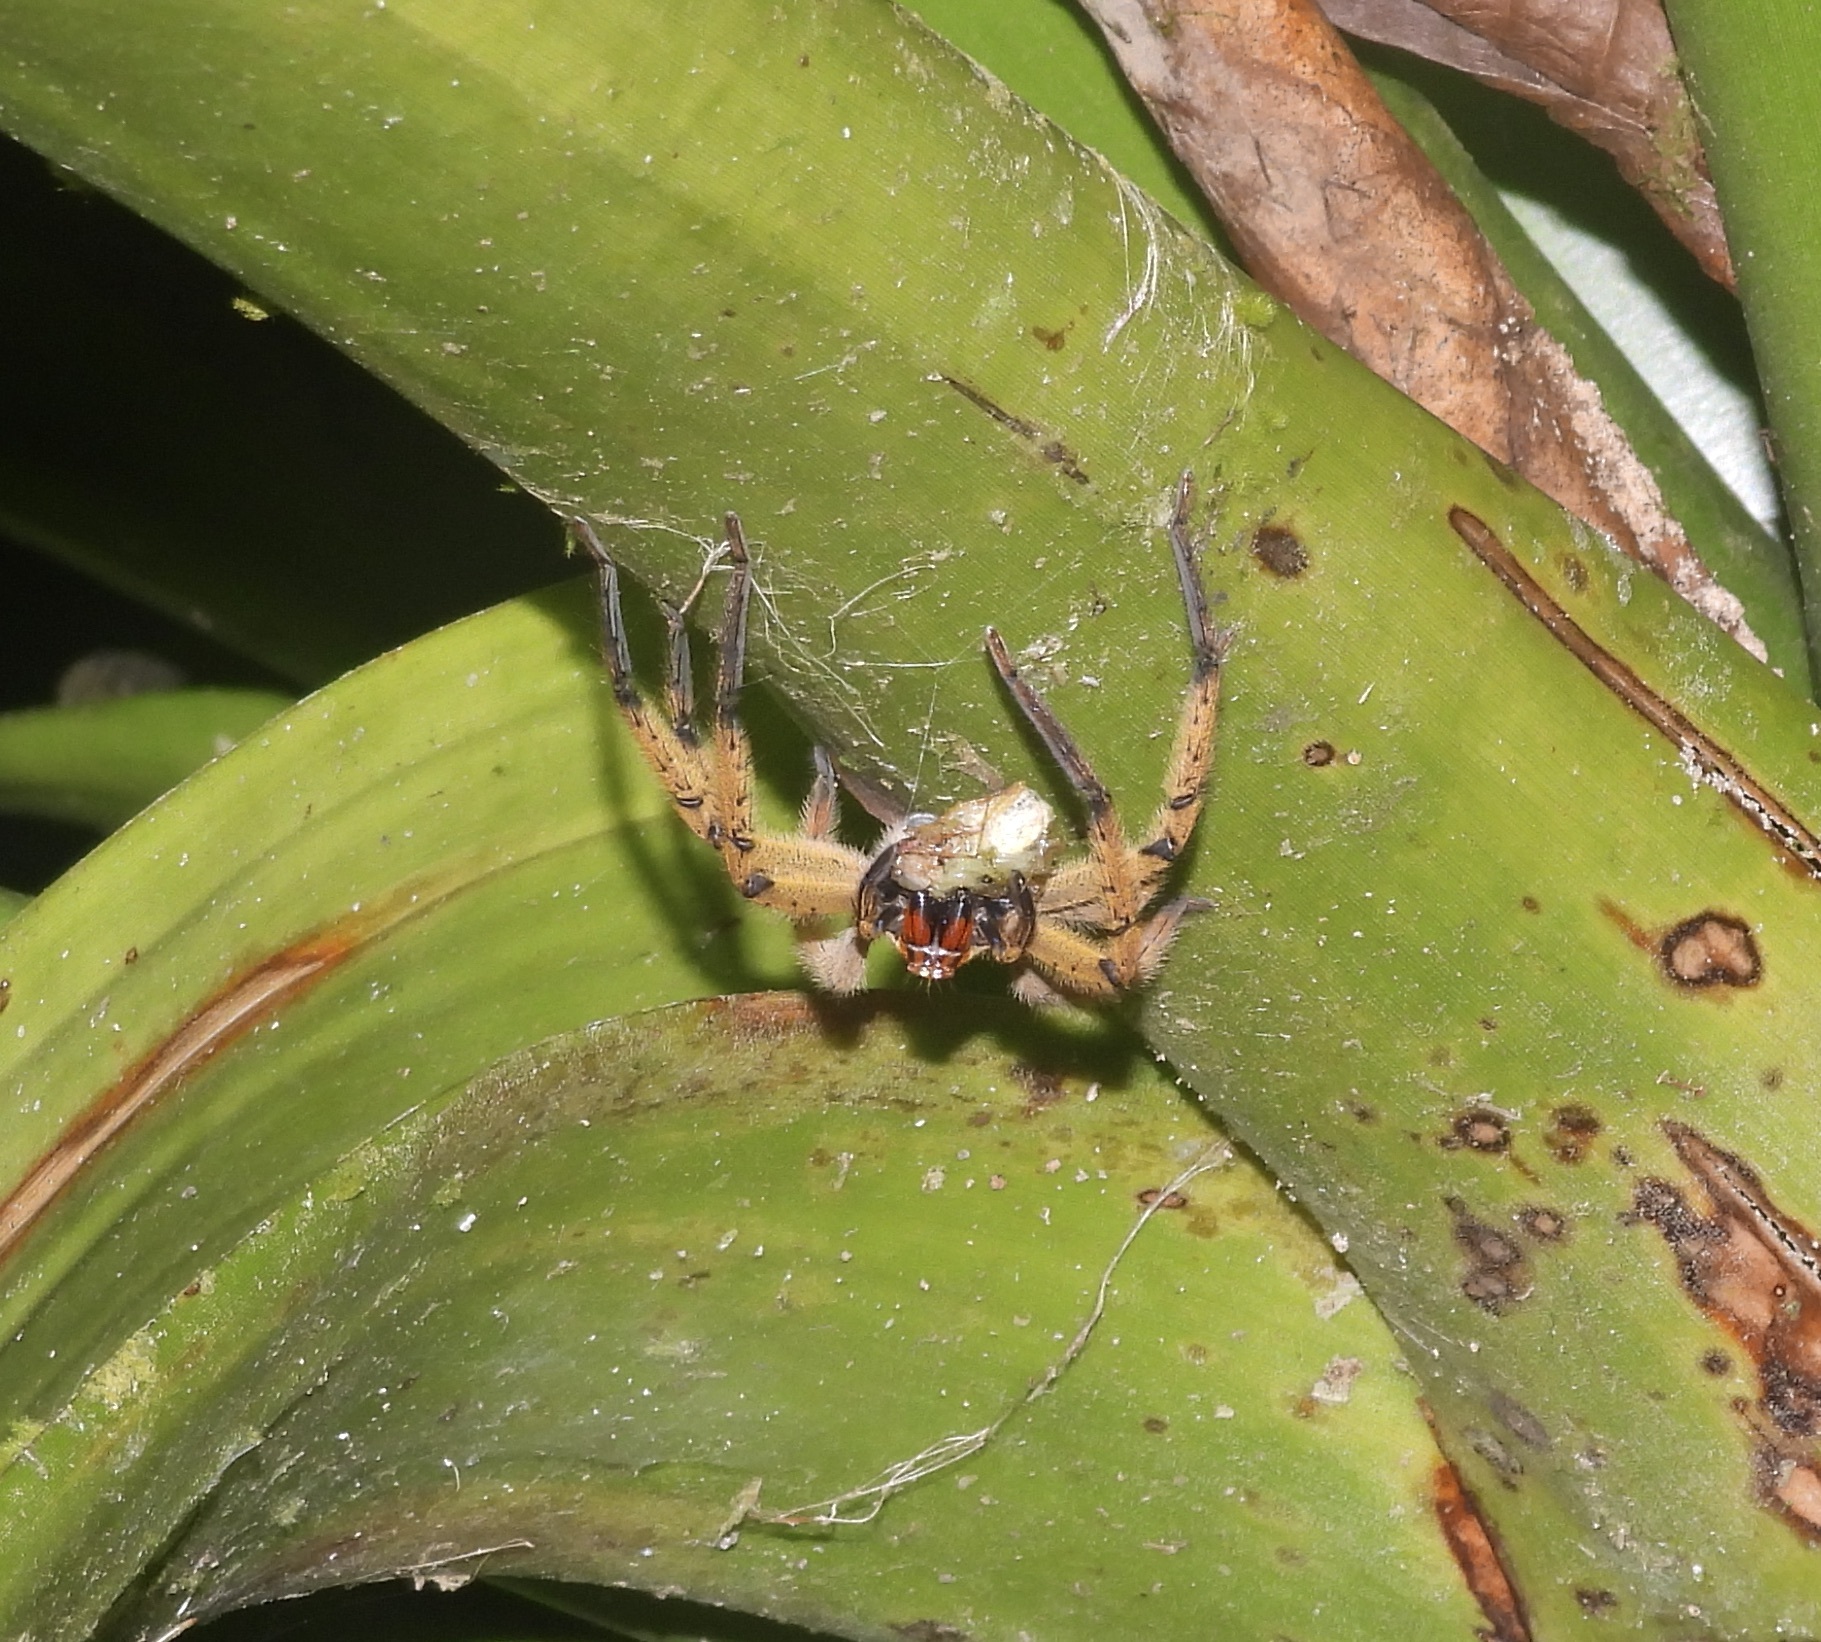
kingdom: Animalia
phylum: Arthropoda
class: Arachnida
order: Araneae
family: Trechaleidae
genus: Cupiennius
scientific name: Cupiennius getazi
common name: Wandering spiders
